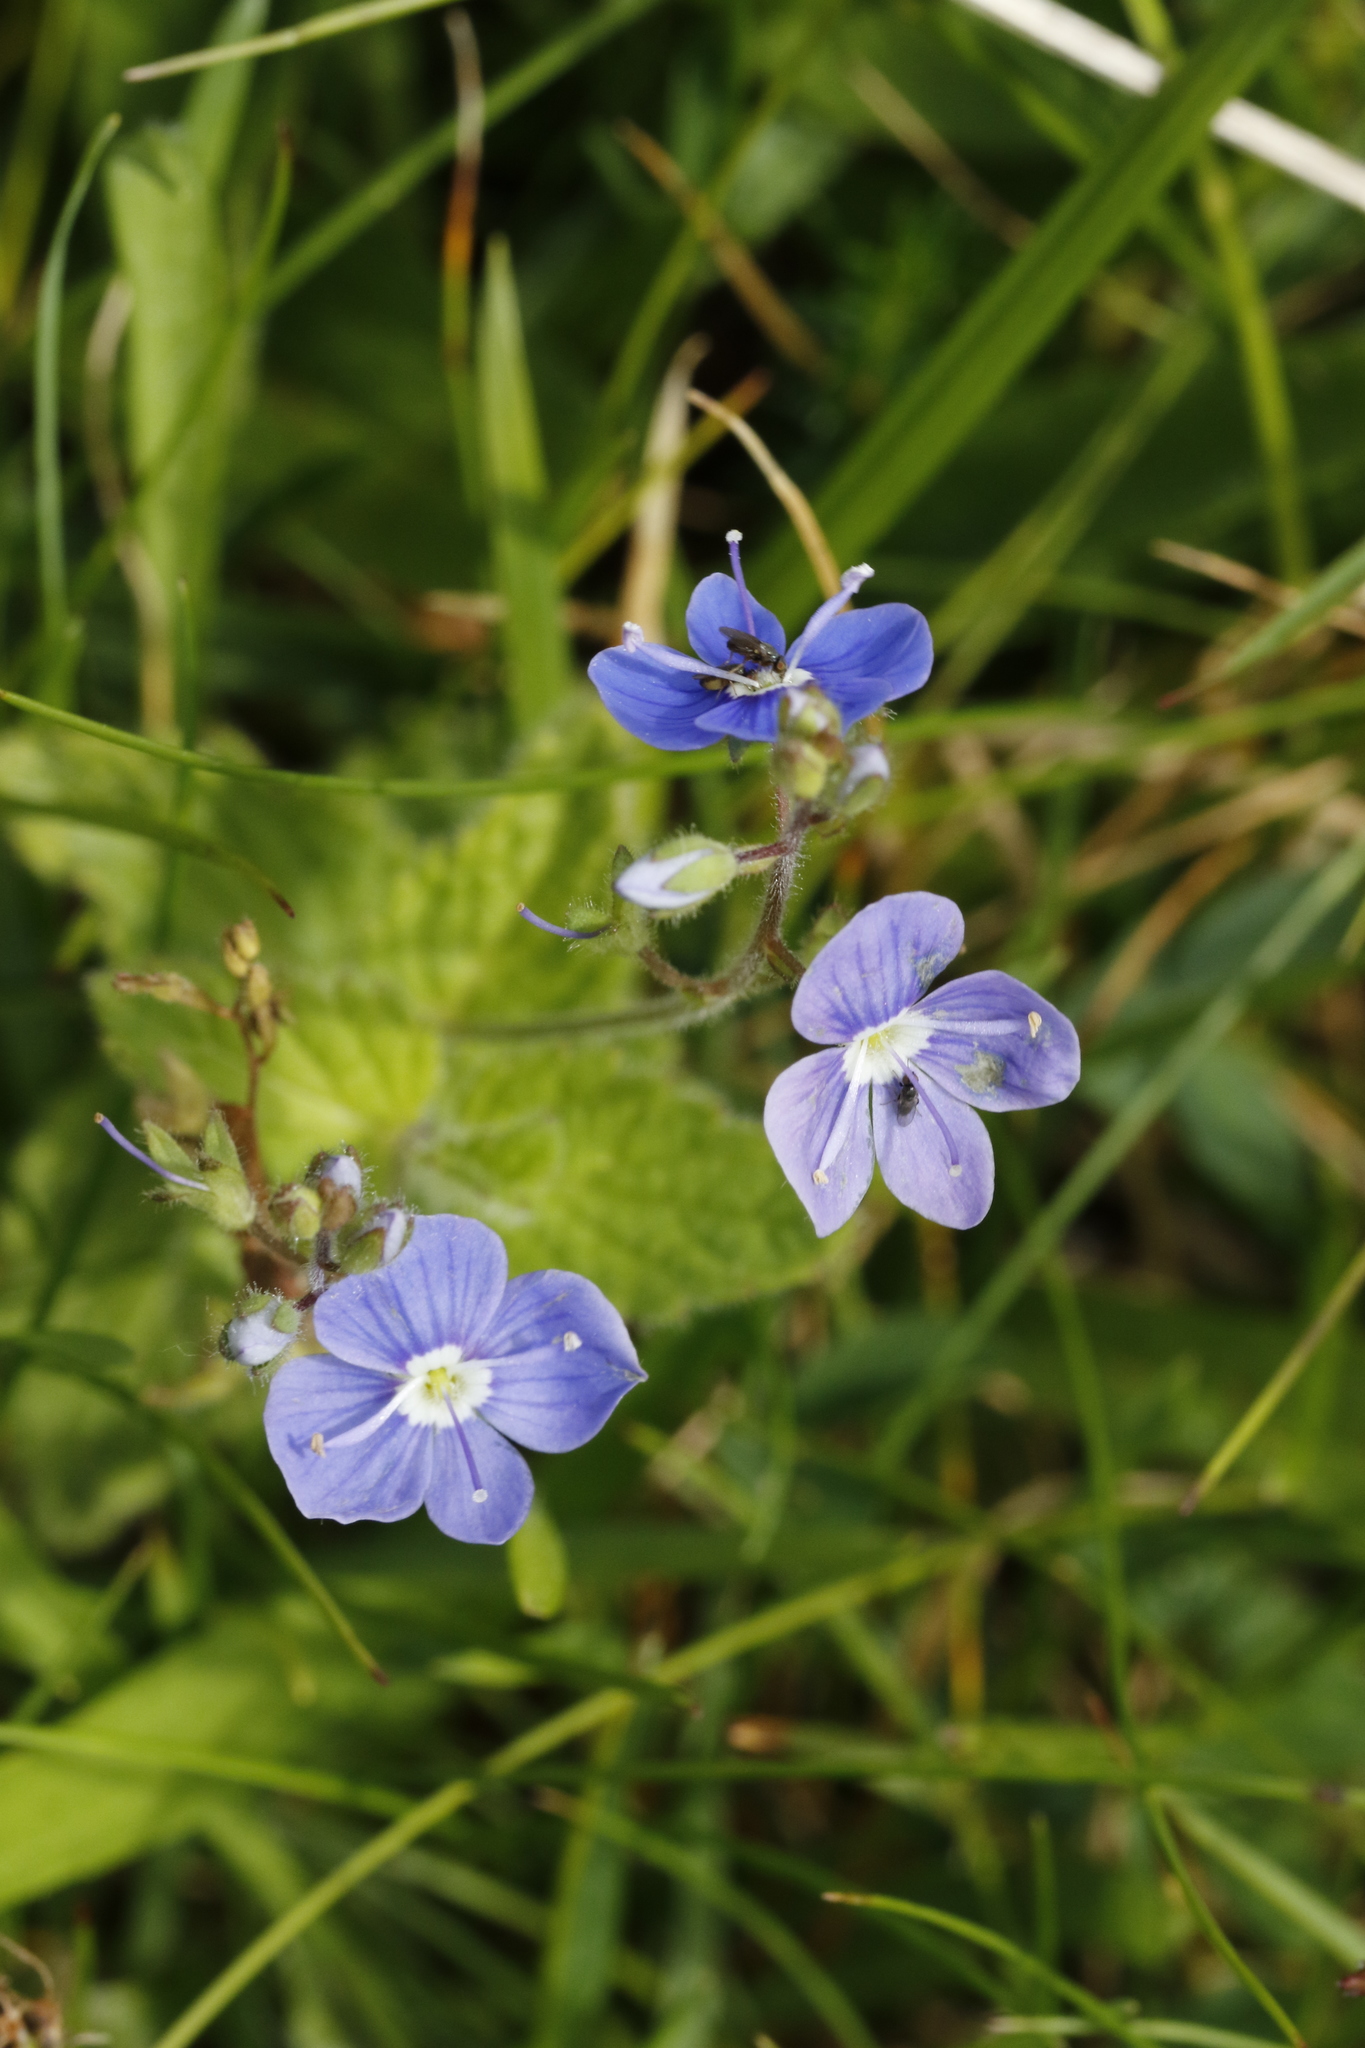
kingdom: Plantae
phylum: Tracheophyta
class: Magnoliopsida
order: Lamiales
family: Plantaginaceae
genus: Veronica
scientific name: Veronica chamaedrys
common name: Germander speedwell
